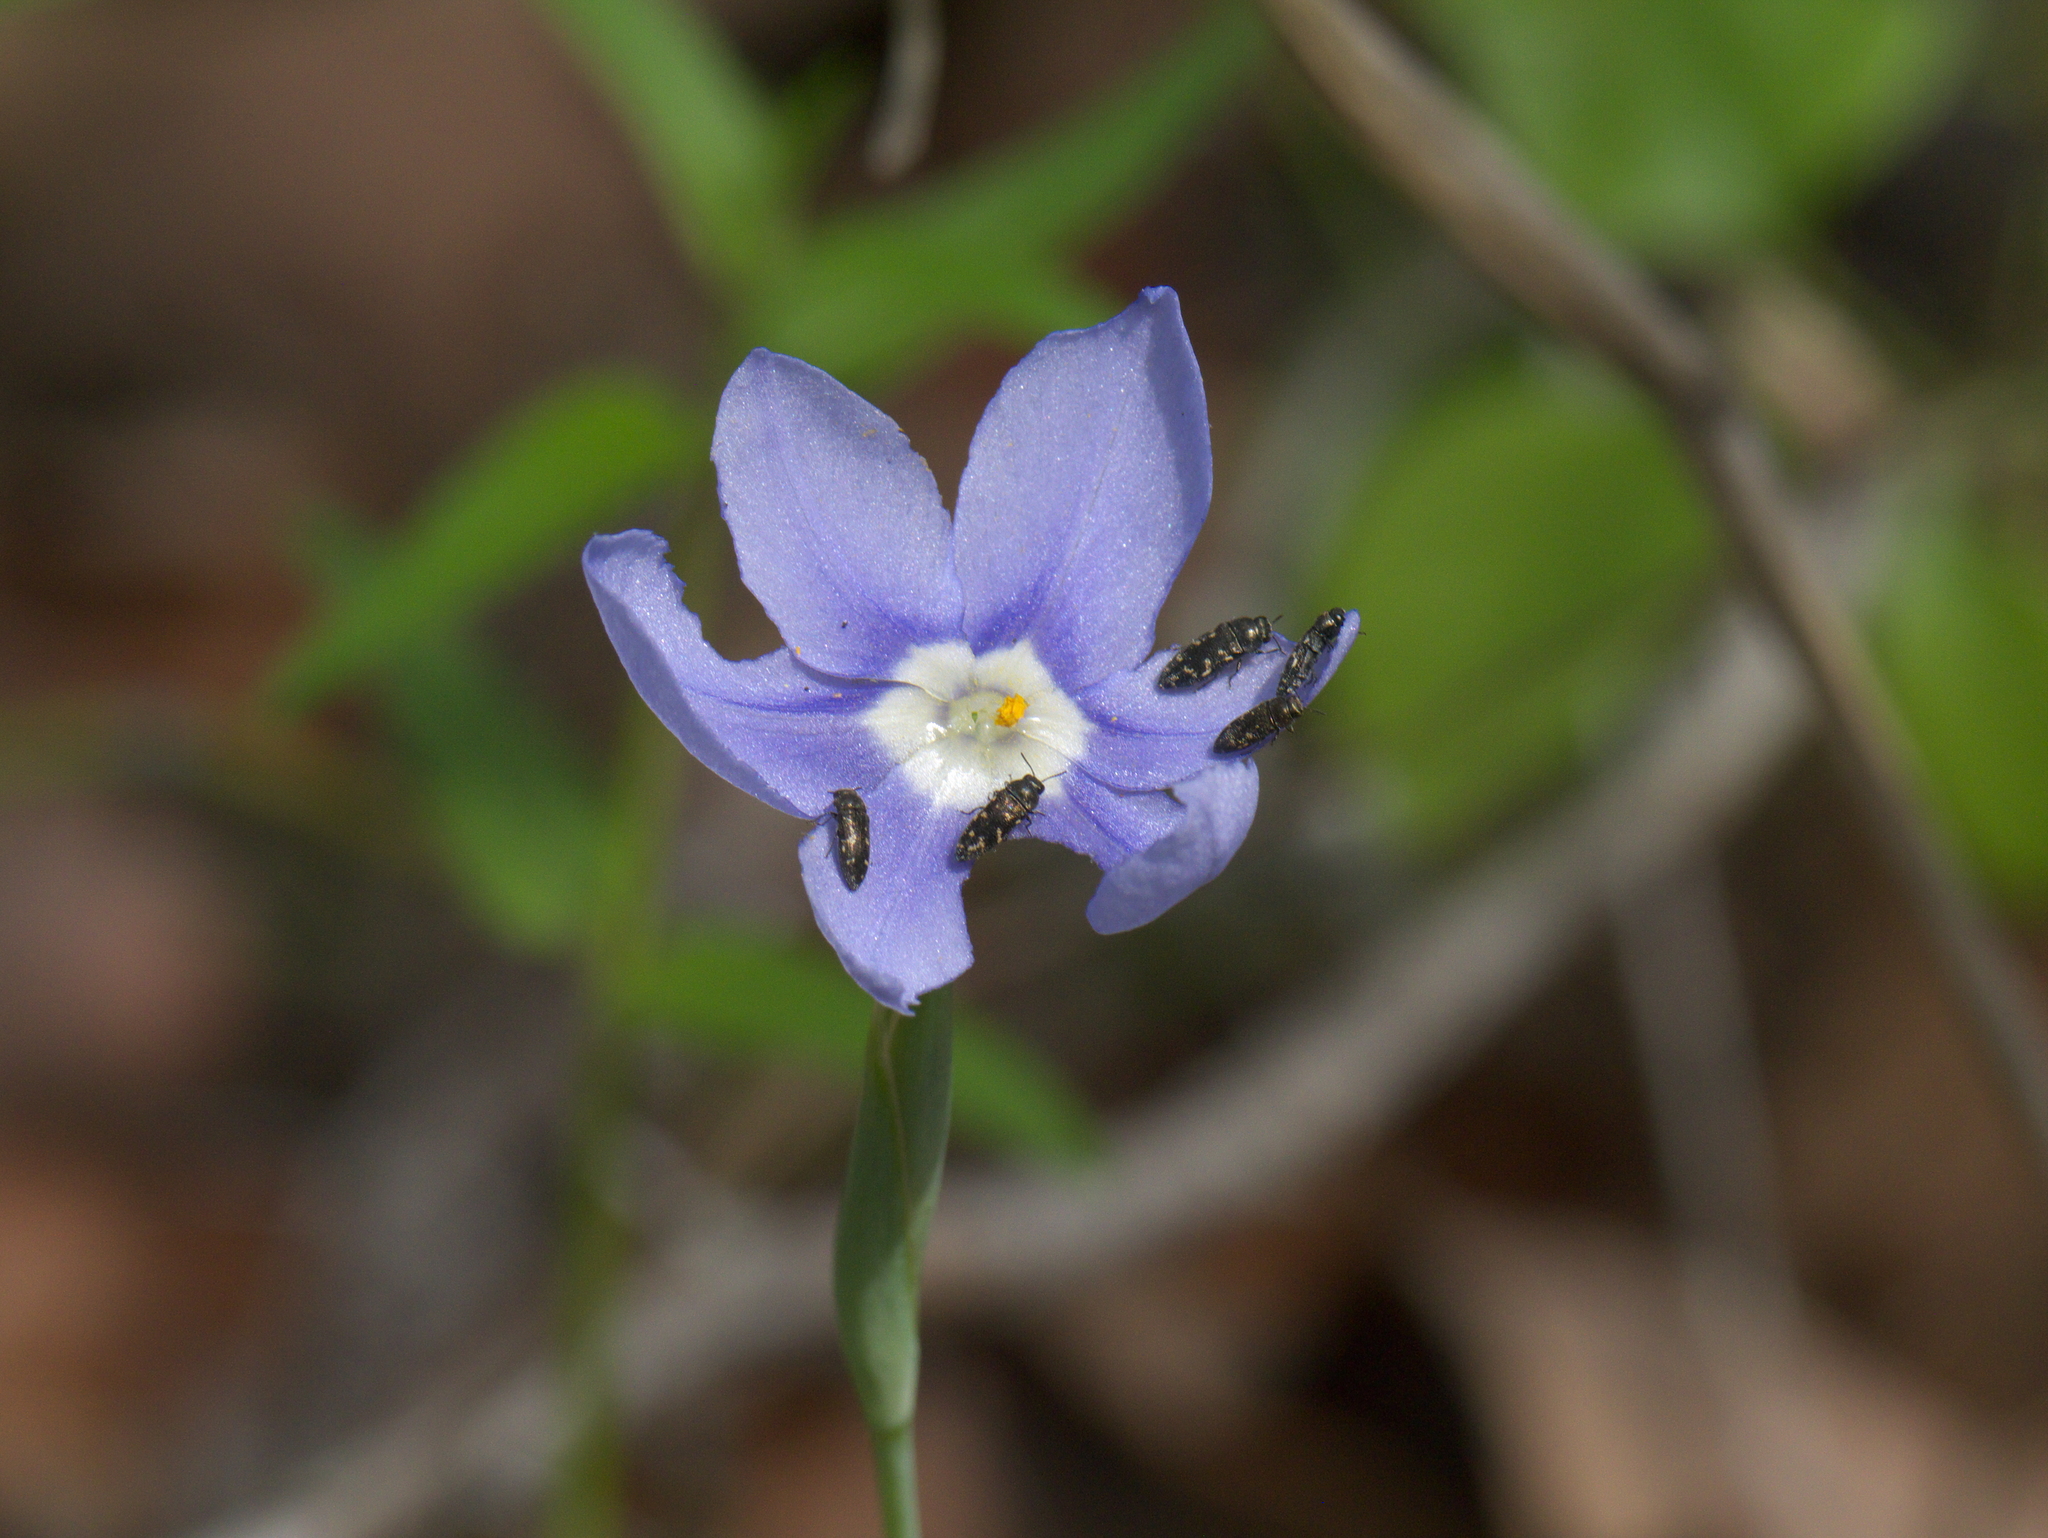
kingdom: Plantae
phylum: Tracheophyta
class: Liliopsida
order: Asparagales
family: Iridaceae
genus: Nemastylis
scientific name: Nemastylis geminiflora
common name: Prairie celestial
